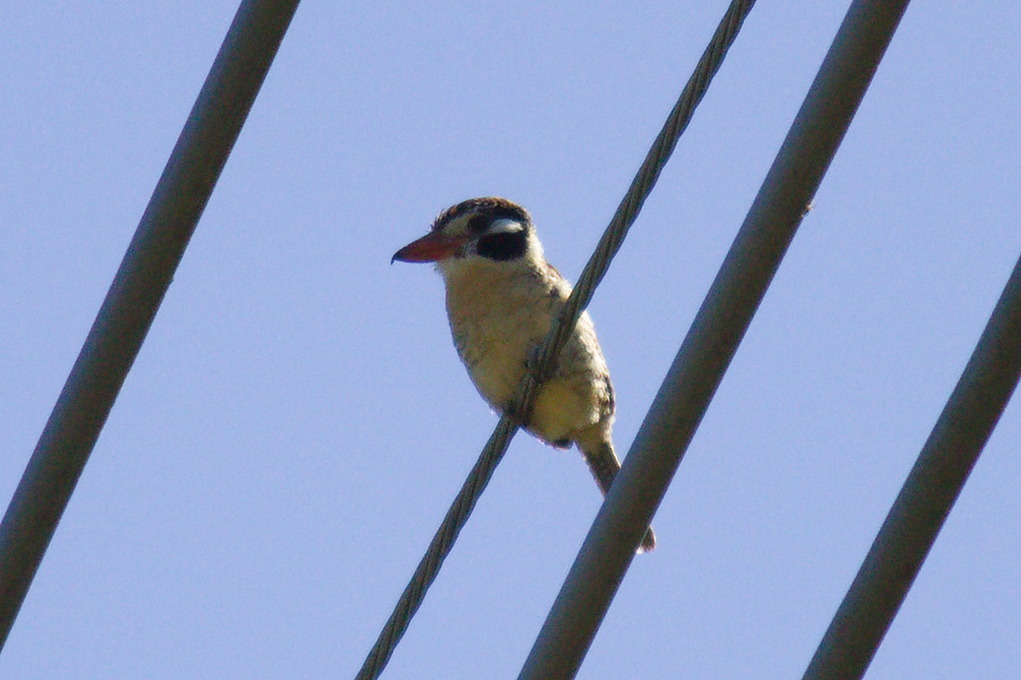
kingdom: Animalia
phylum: Chordata
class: Aves
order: Piciformes
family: Bucconidae
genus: Nystalus
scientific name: Nystalus chacuru
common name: White-eared puffbird
